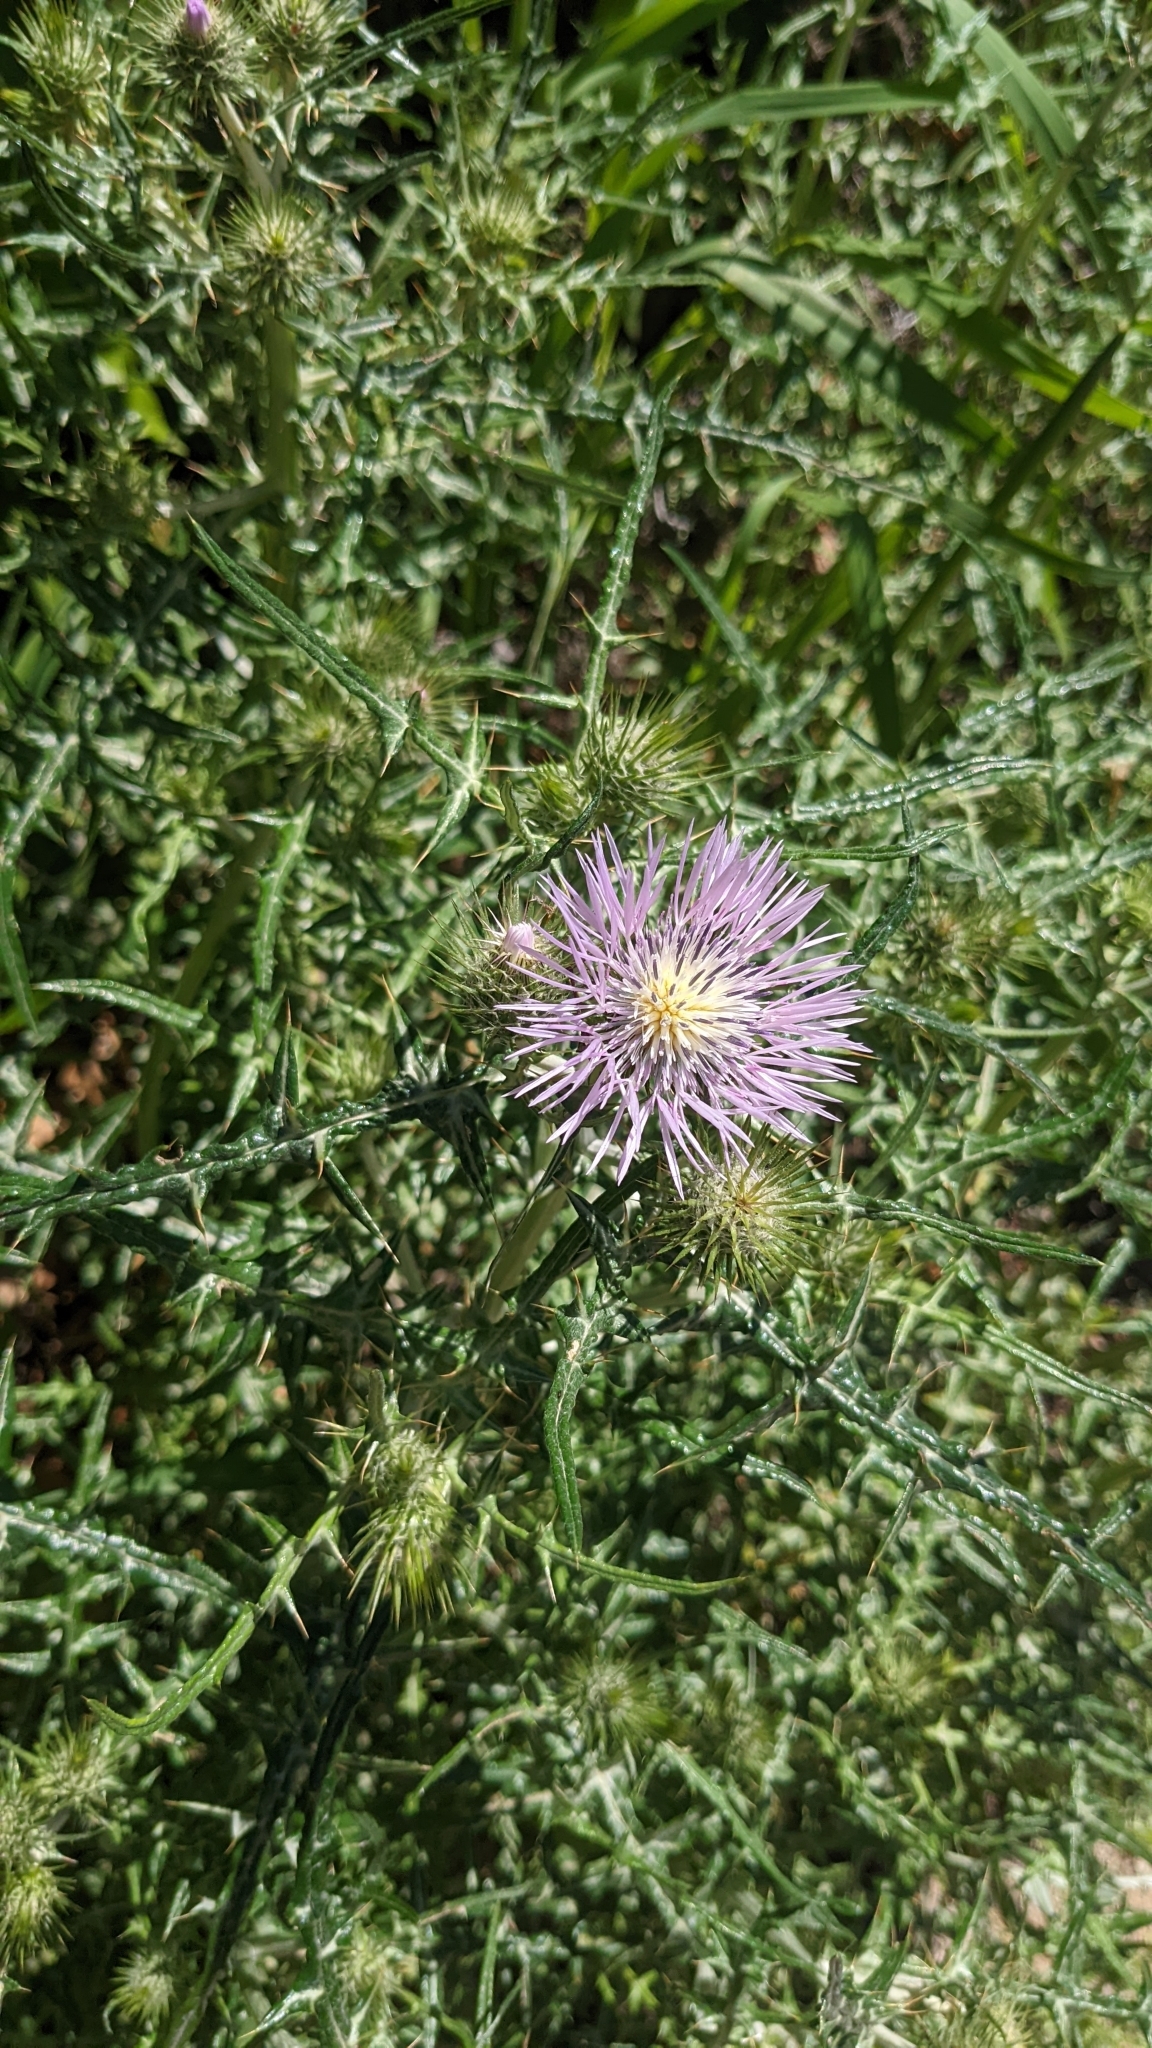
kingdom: Plantae
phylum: Tracheophyta
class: Magnoliopsida
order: Asterales
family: Asteraceae
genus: Galactites
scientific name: Galactites tomentosa
